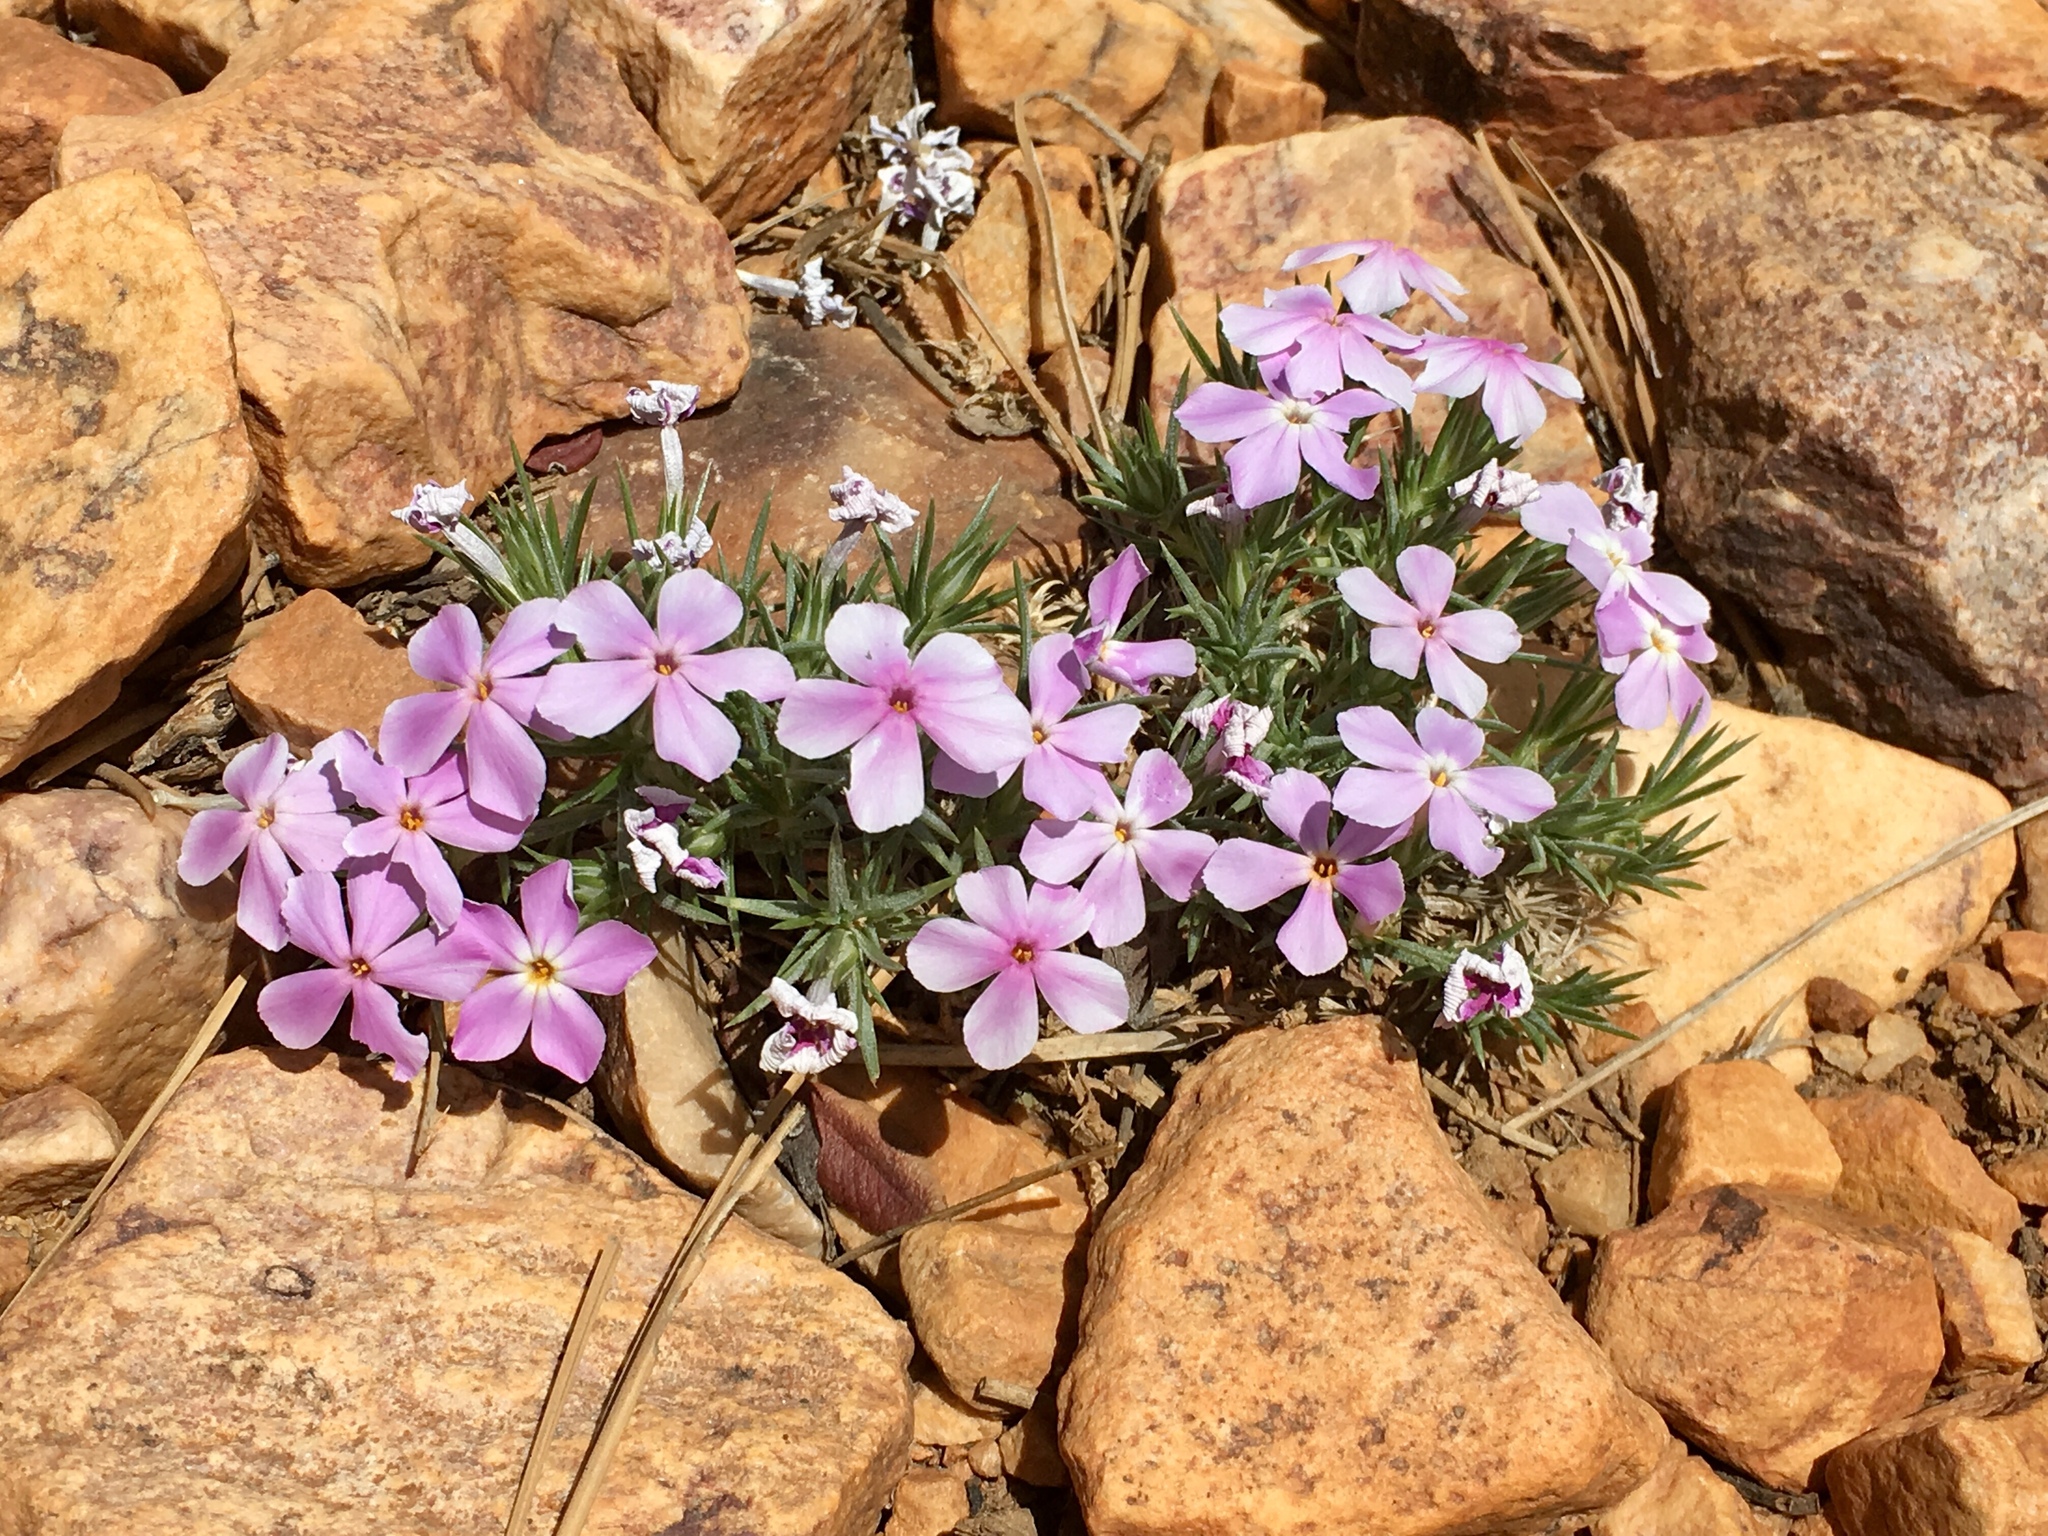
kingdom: Plantae
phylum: Tracheophyta
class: Magnoliopsida
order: Ericales
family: Polemoniaceae
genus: Phlox
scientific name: Phlox austromontana
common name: Desert phlox
